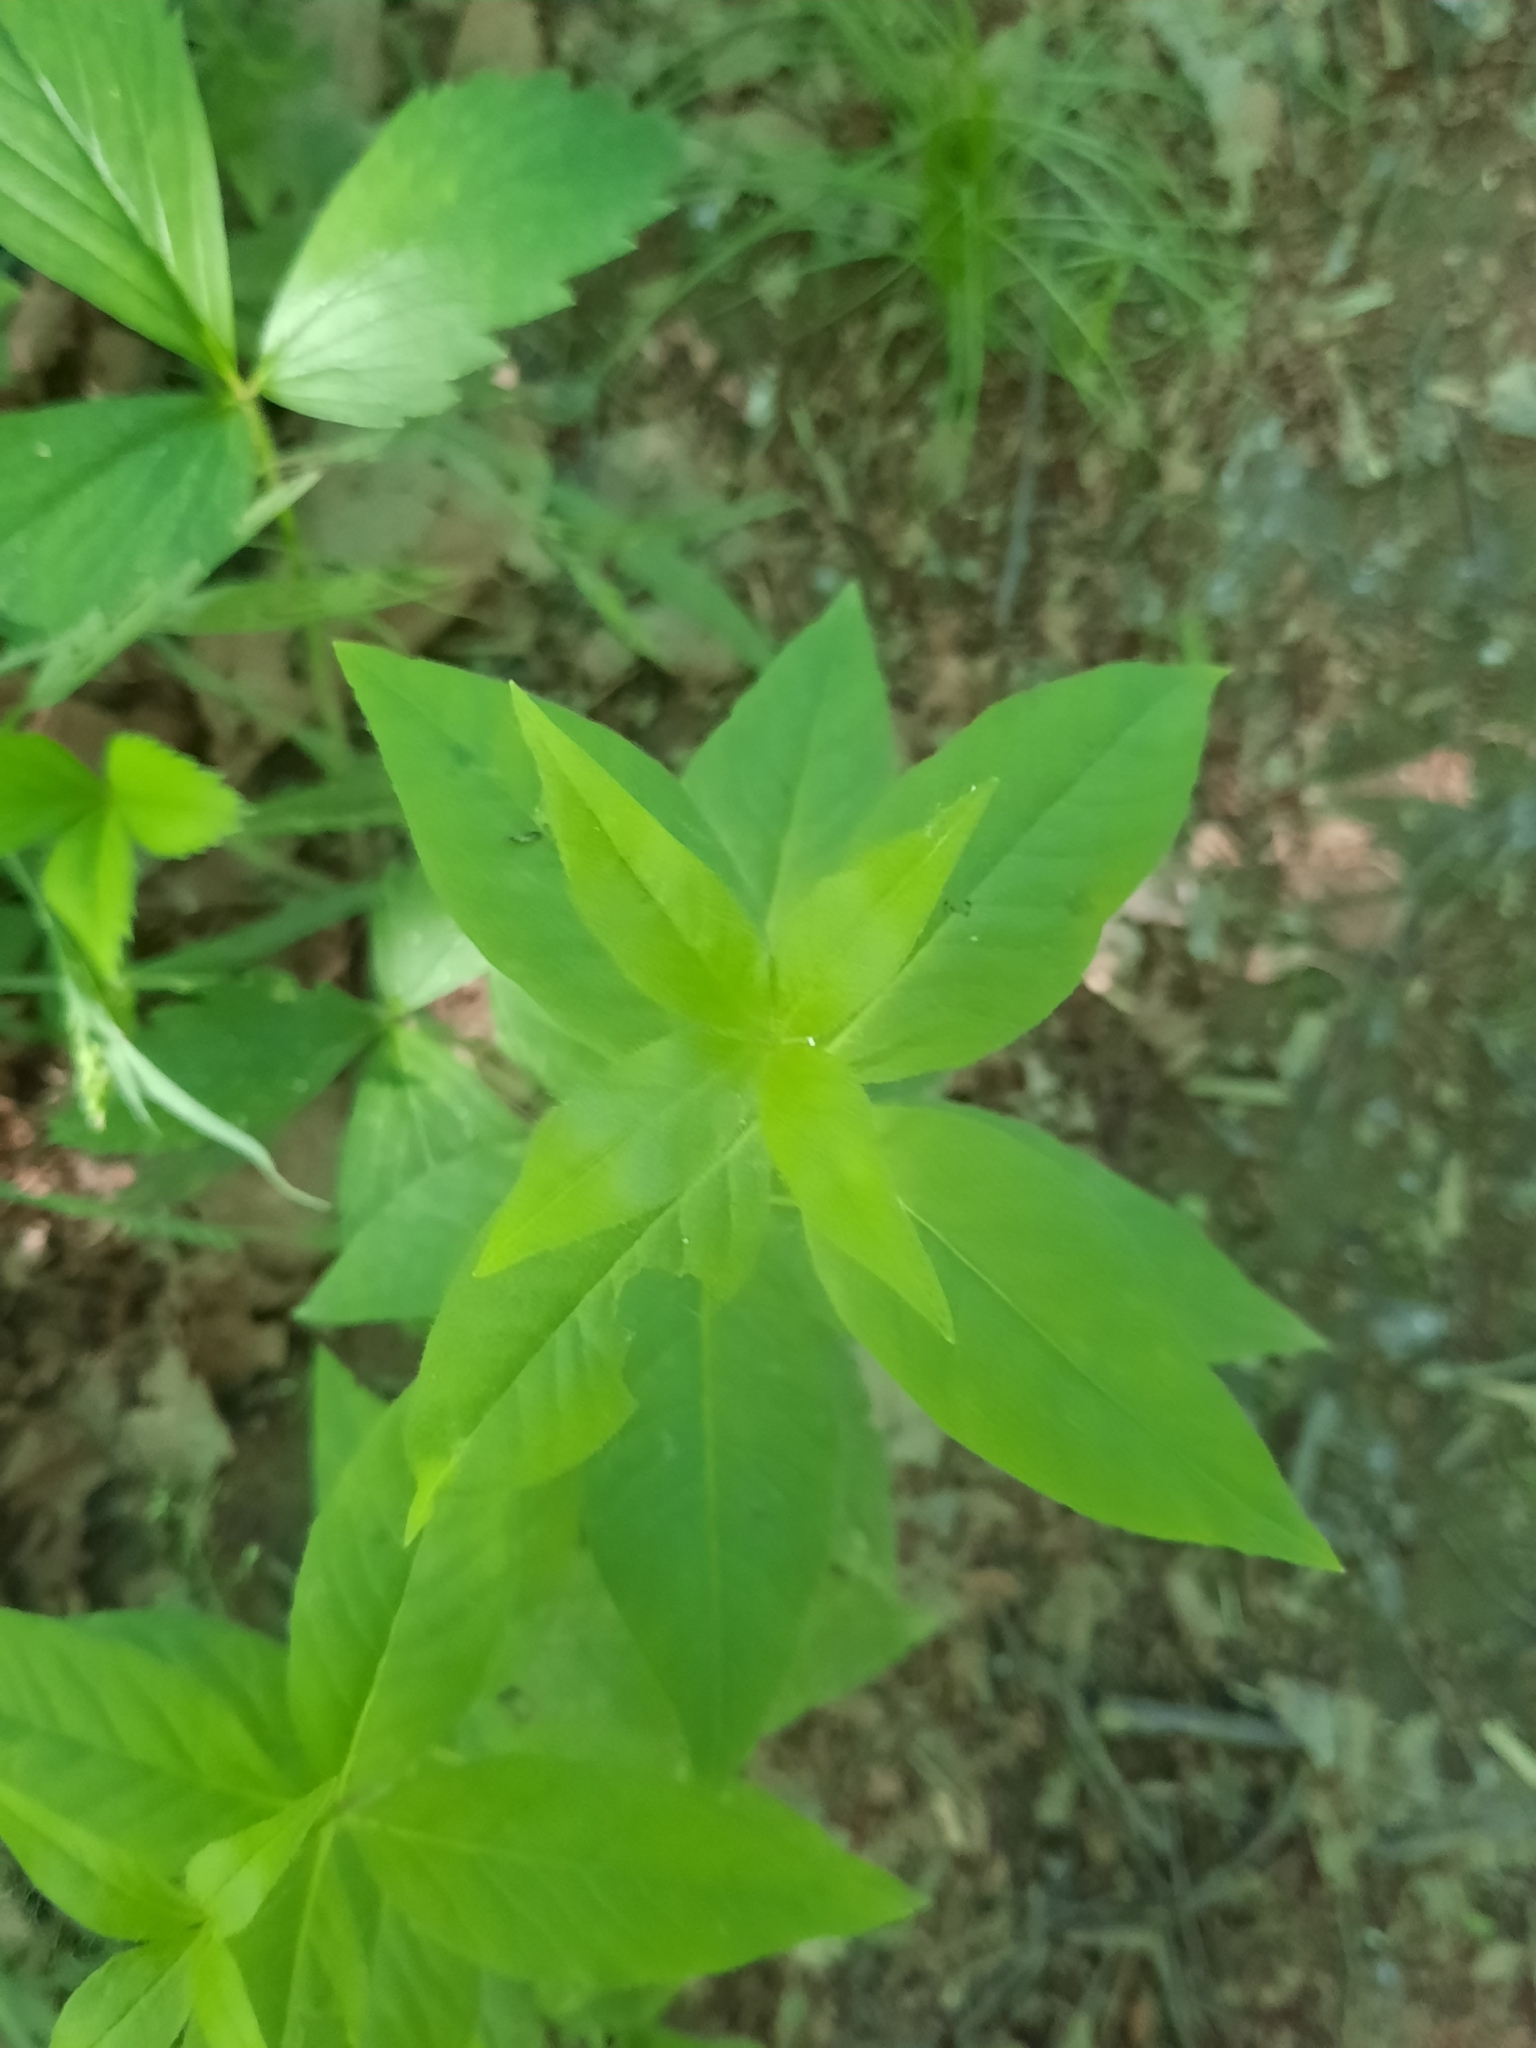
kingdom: Plantae
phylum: Tracheophyta
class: Magnoliopsida
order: Ericales
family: Primulaceae
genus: Lysimachia
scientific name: Lysimachia quadrifolia
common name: Whorled loosestrife
